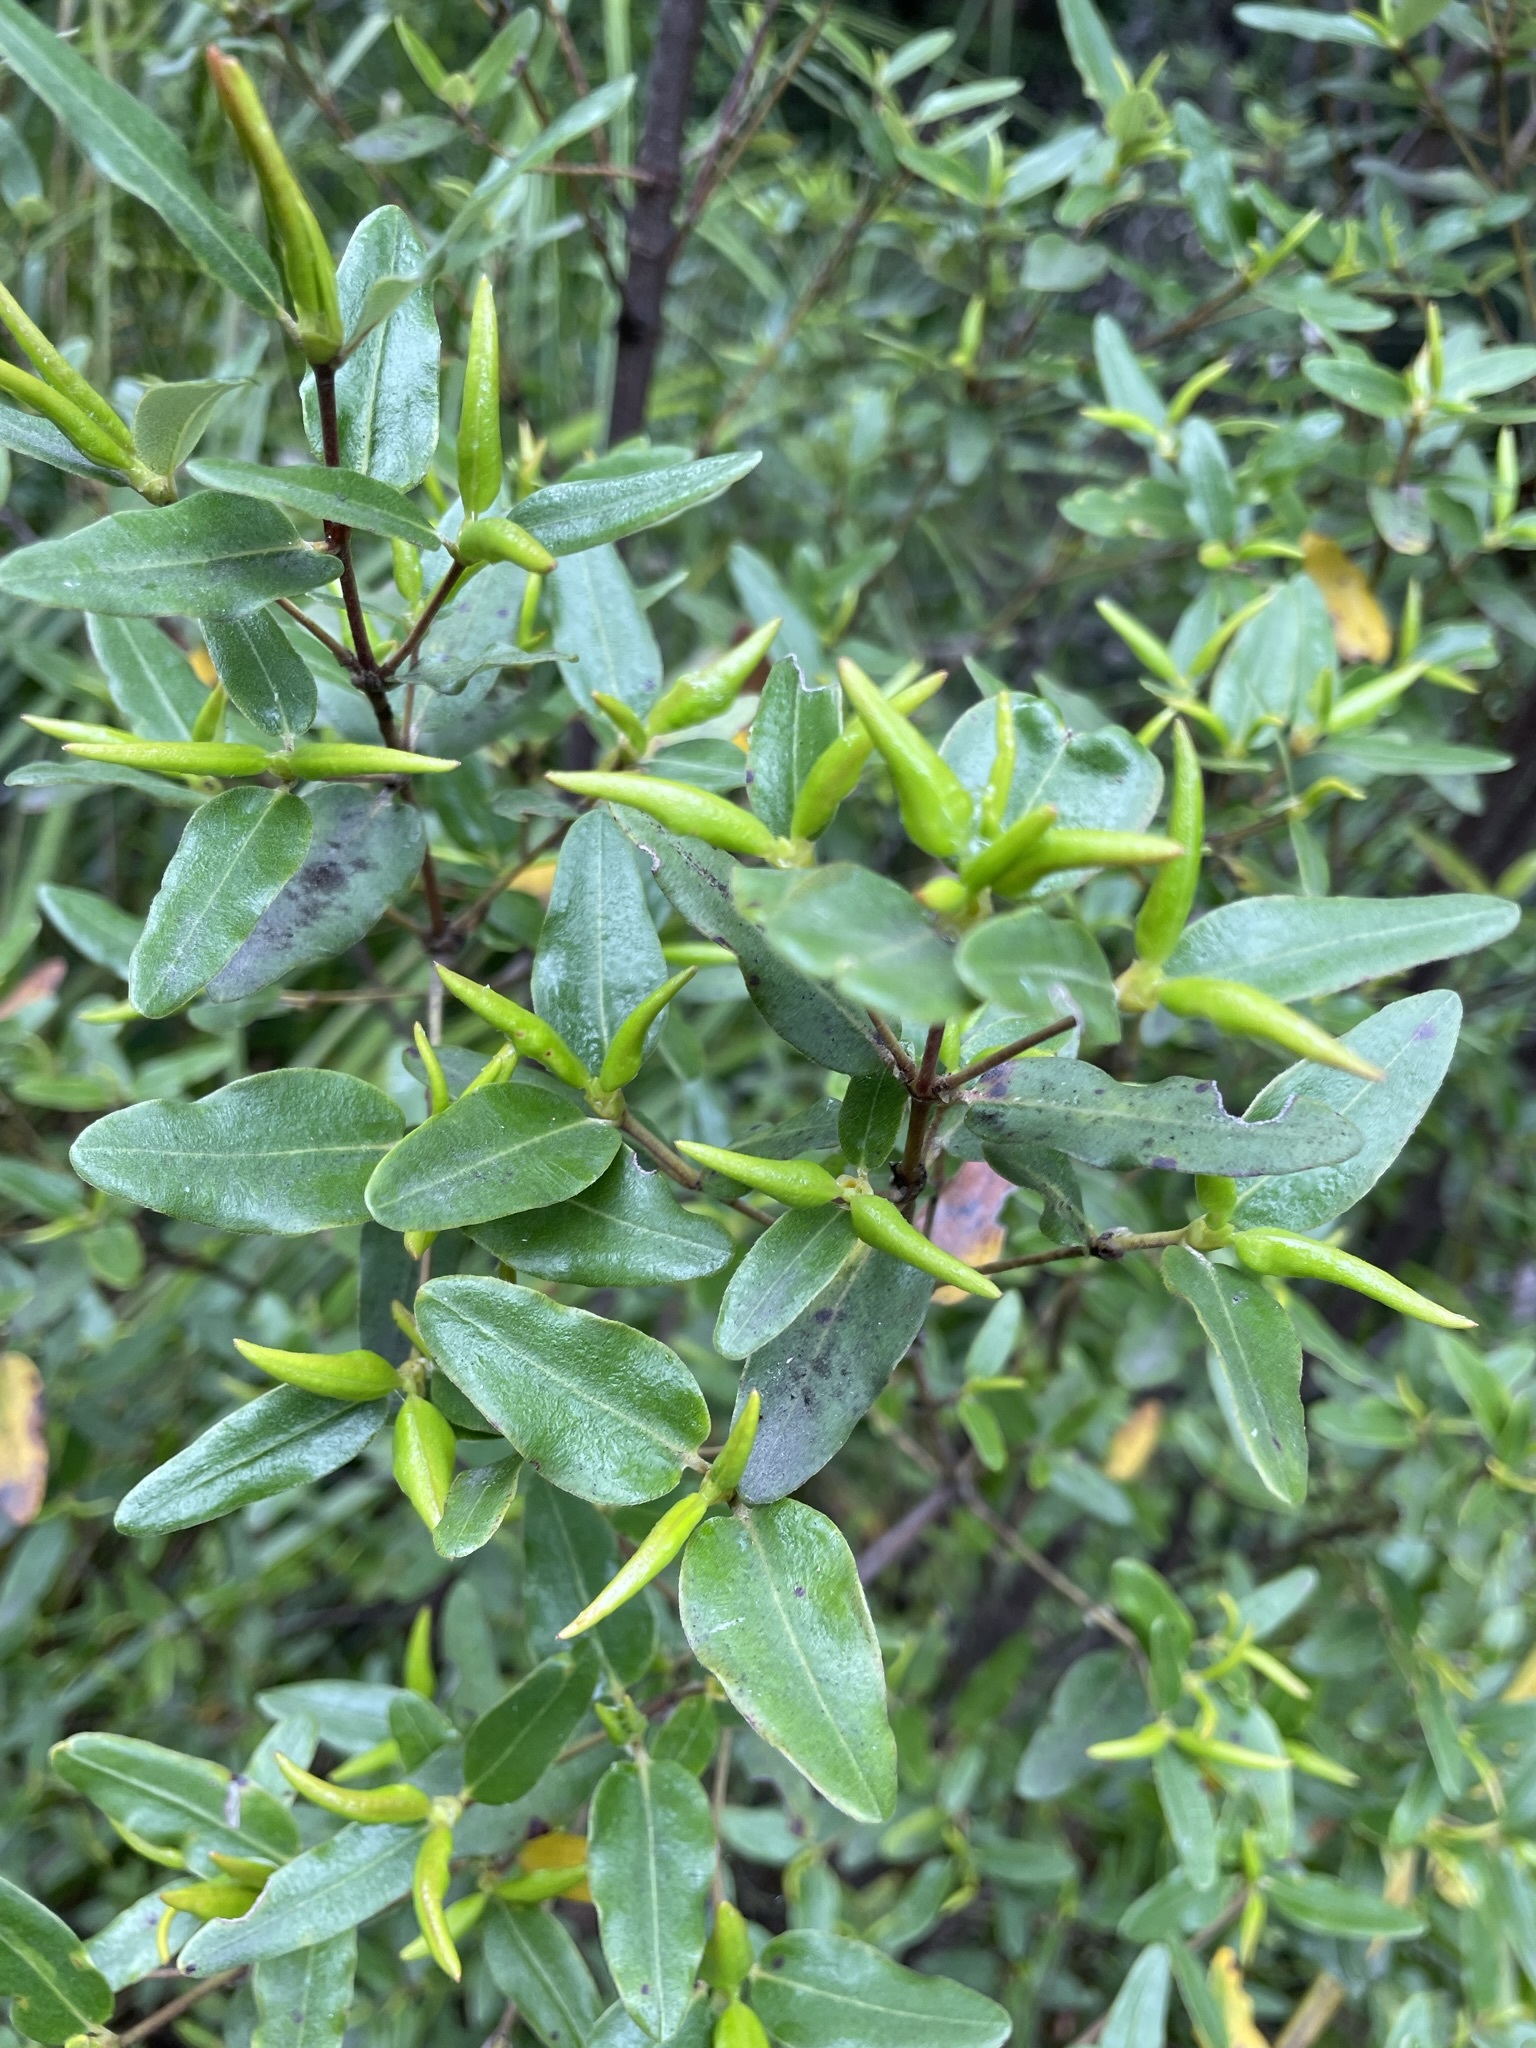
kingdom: Plantae
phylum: Tracheophyta
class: Magnoliopsida
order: Oxalidales
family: Cunoniaceae
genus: Eucryphia
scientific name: Eucryphia lucida
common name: Leatherwood
